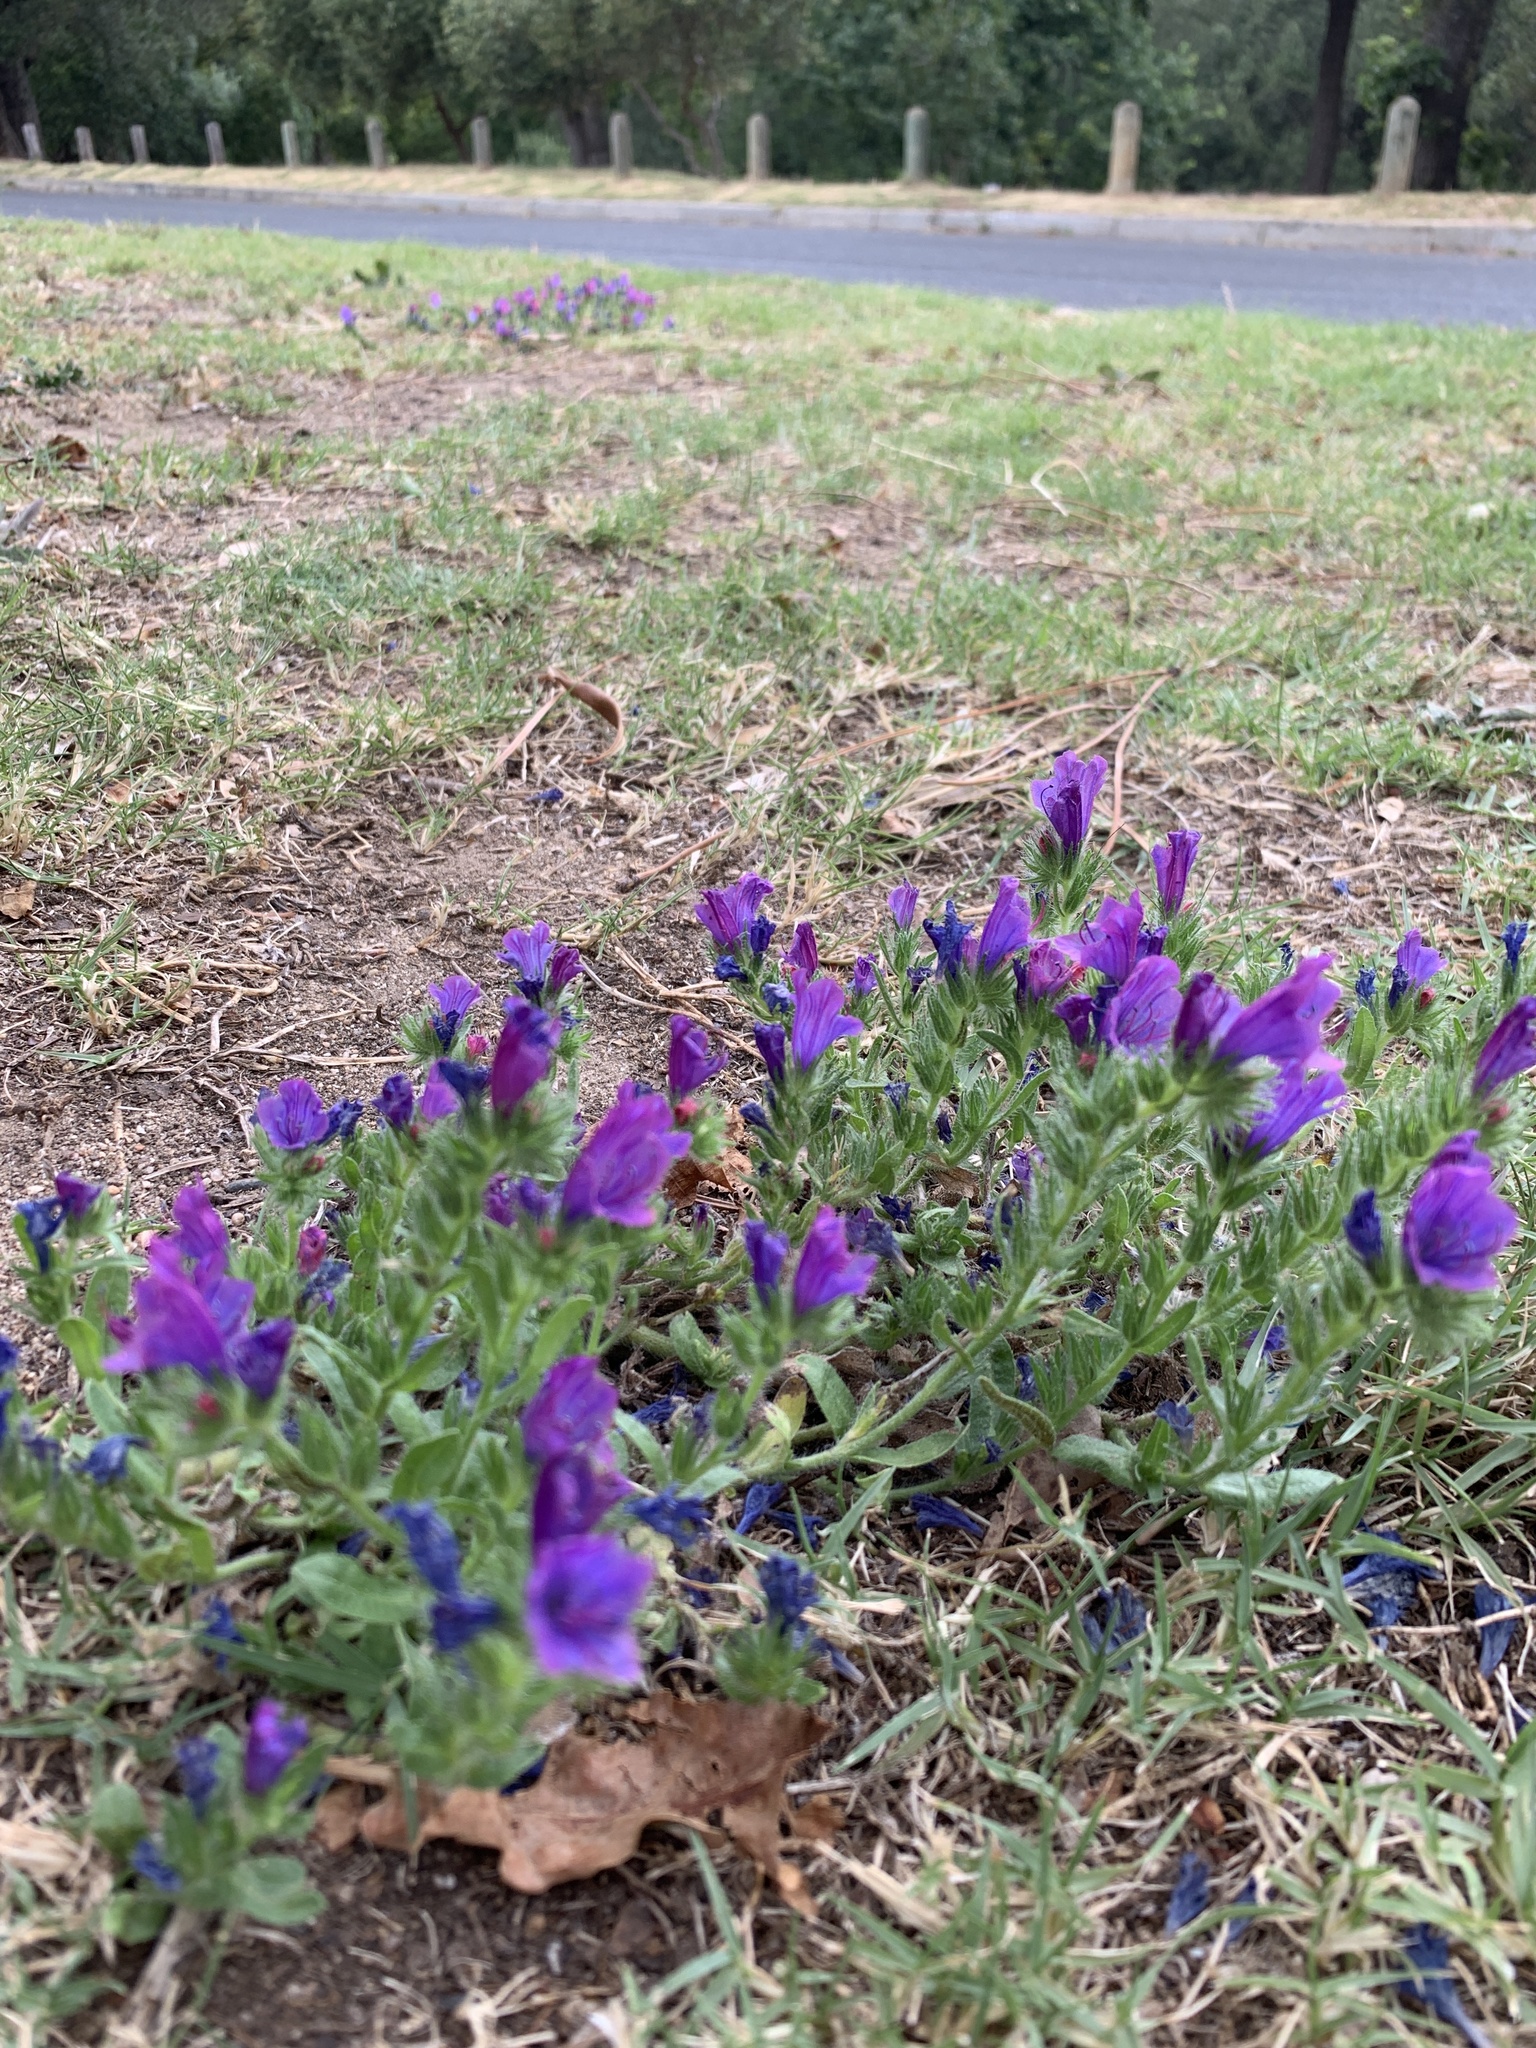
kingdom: Plantae
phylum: Tracheophyta
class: Magnoliopsida
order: Boraginales
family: Boraginaceae
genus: Echium
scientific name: Echium plantagineum
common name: Purple viper's-bugloss
